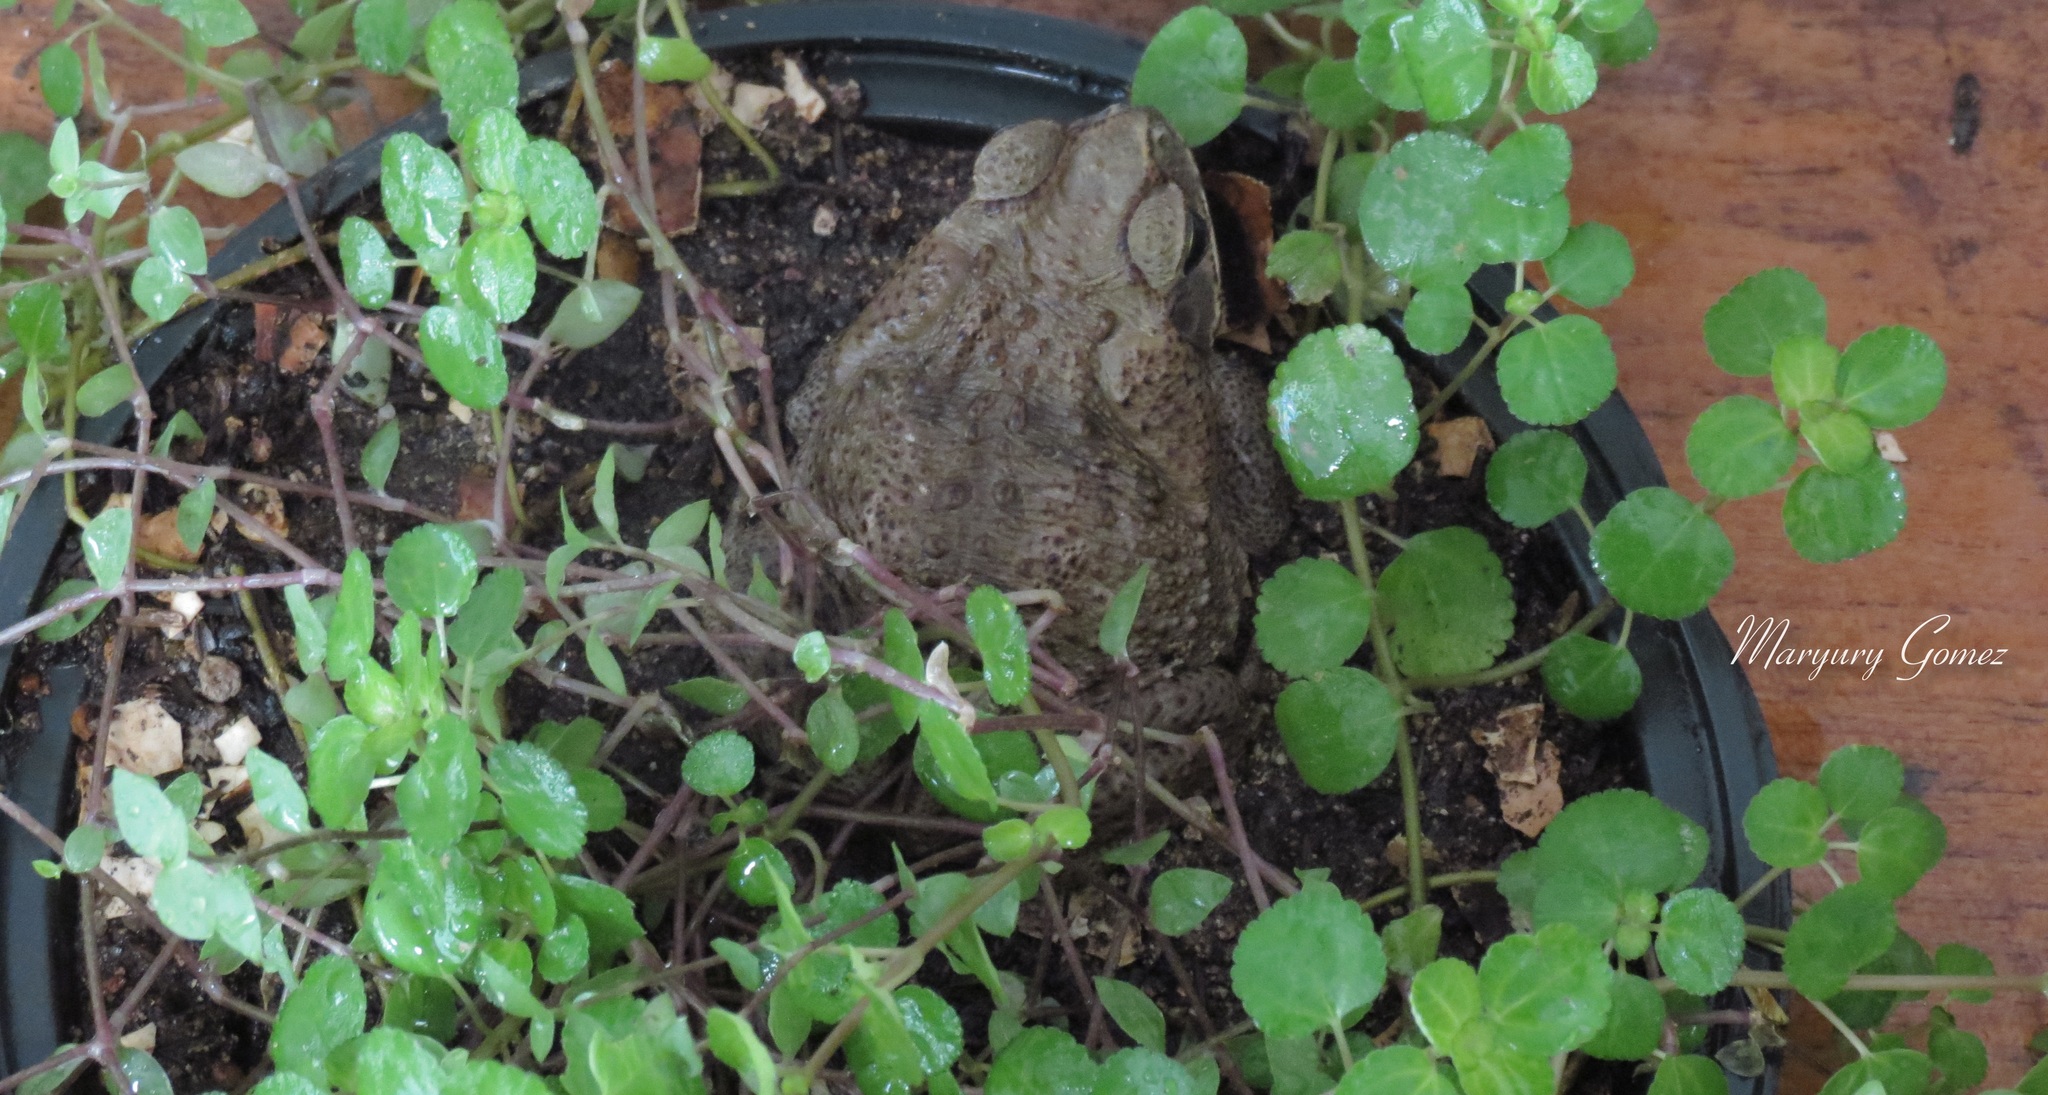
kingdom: Animalia
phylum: Chordata
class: Amphibia
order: Anura
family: Bufonidae
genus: Rhinella
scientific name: Rhinella horribilis
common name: Mesoamerican cane toad
